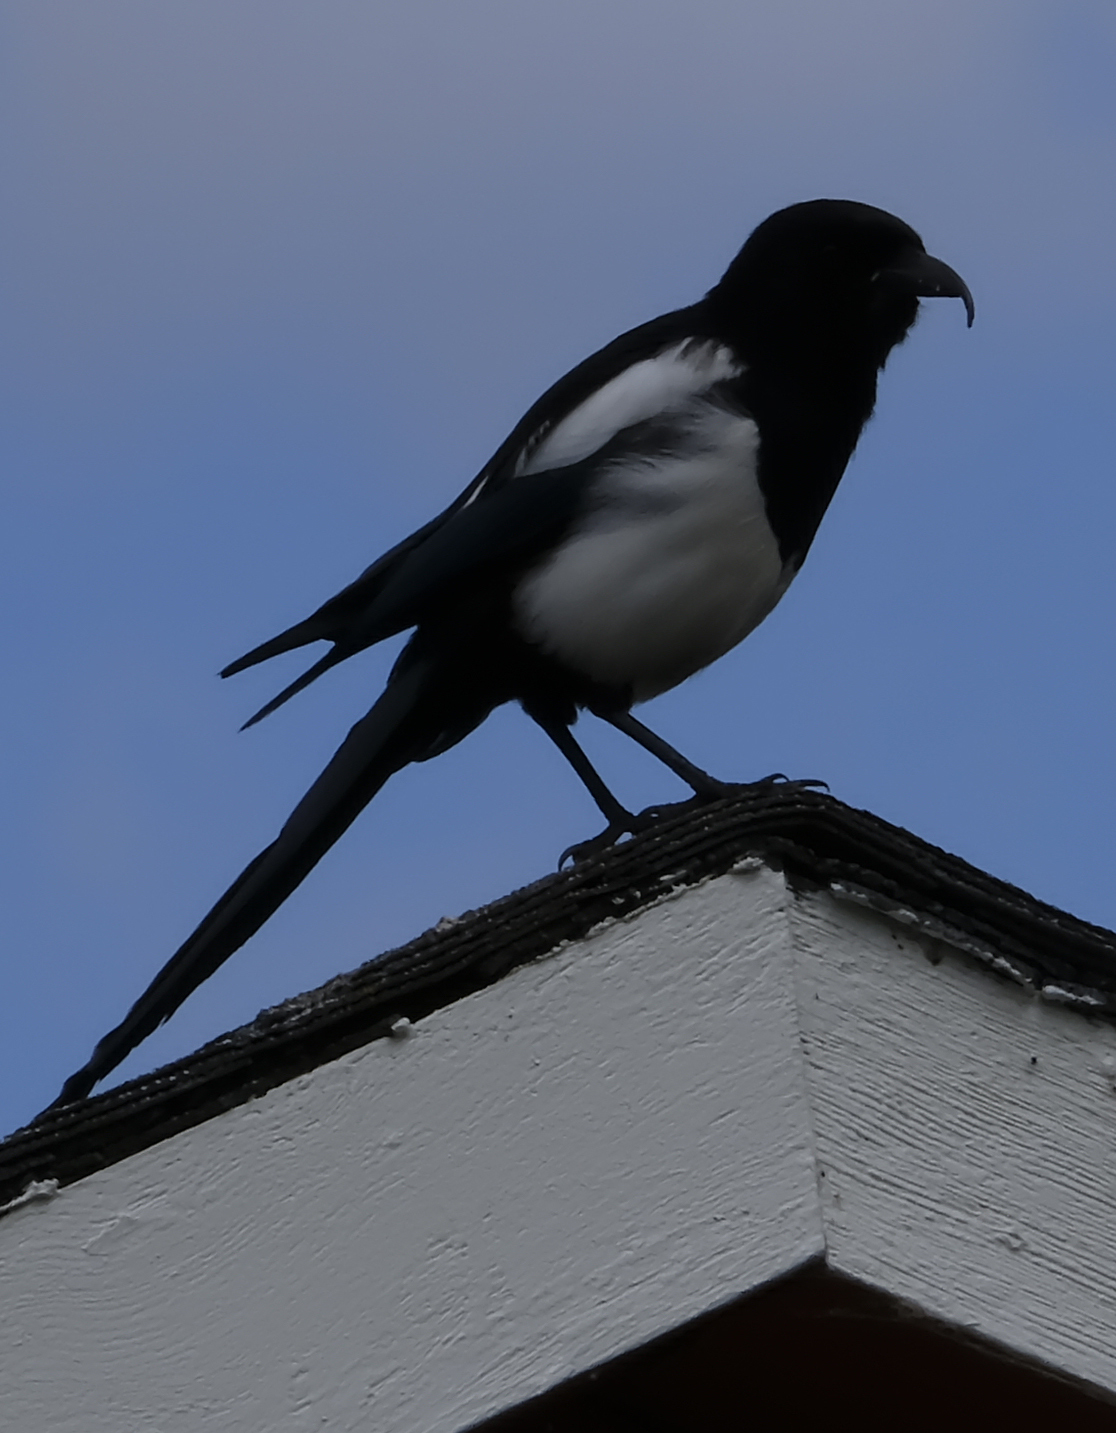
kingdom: Animalia
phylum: Chordata
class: Aves
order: Passeriformes
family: Corvidae
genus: Pica
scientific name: Pica hudsonia
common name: Black-billed magpie
